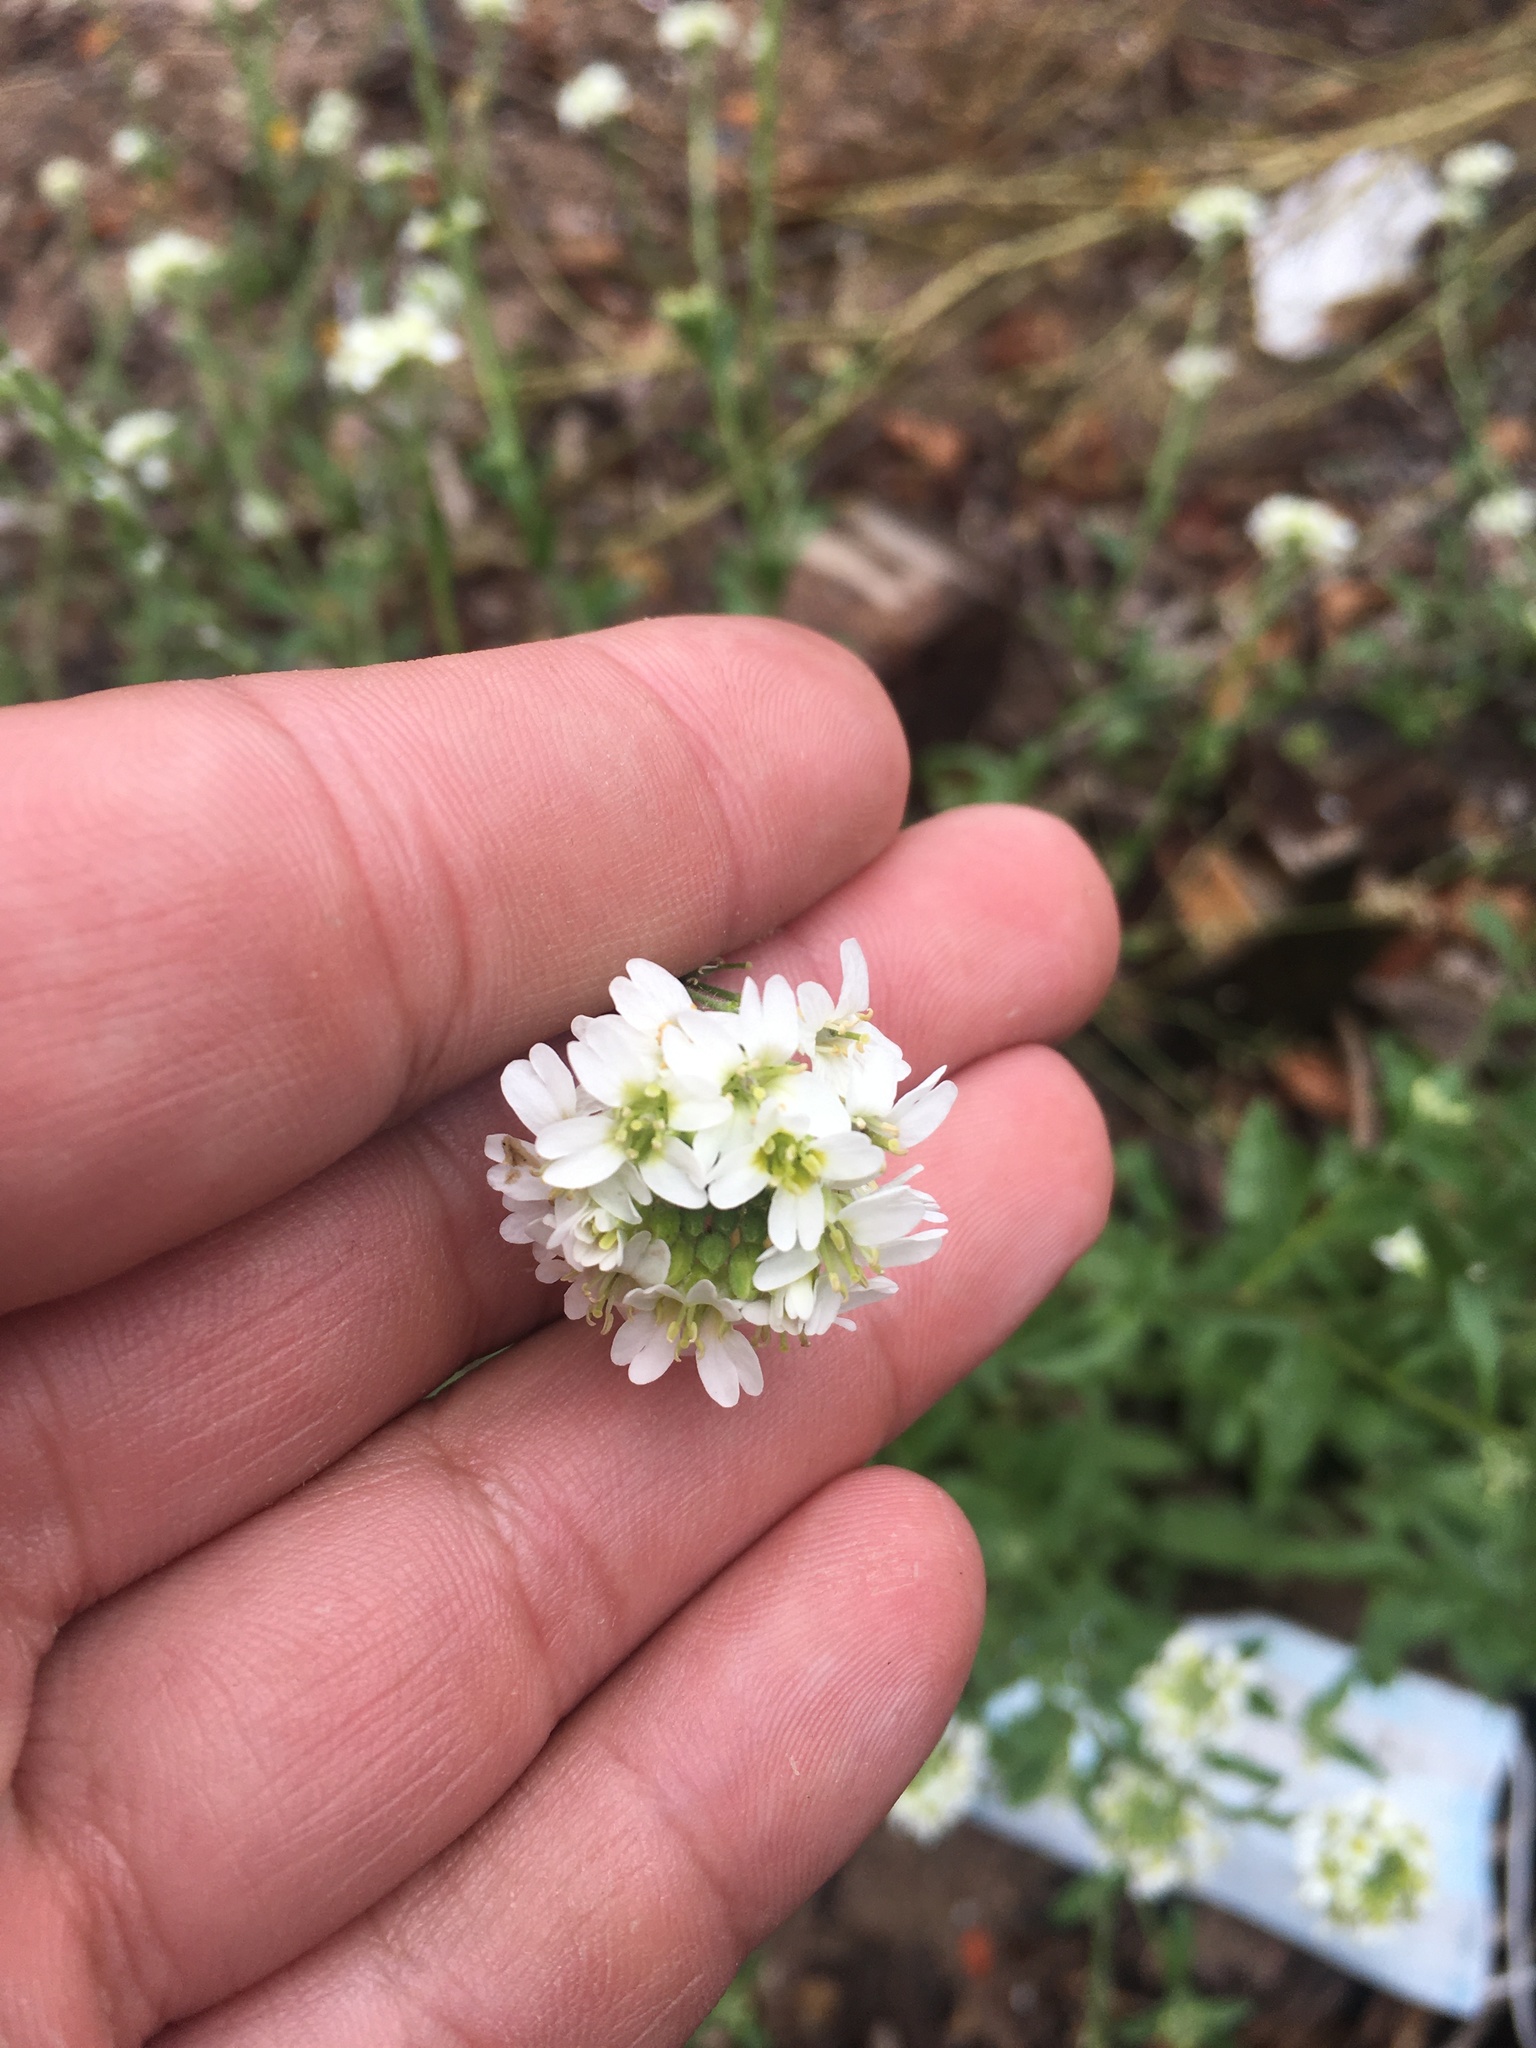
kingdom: Plantae
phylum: Tracheophyta
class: Magnoliopsida
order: Brassicales
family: Brassicaceae
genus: Berteroa
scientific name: Berteroa incana
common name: Hoary alison
